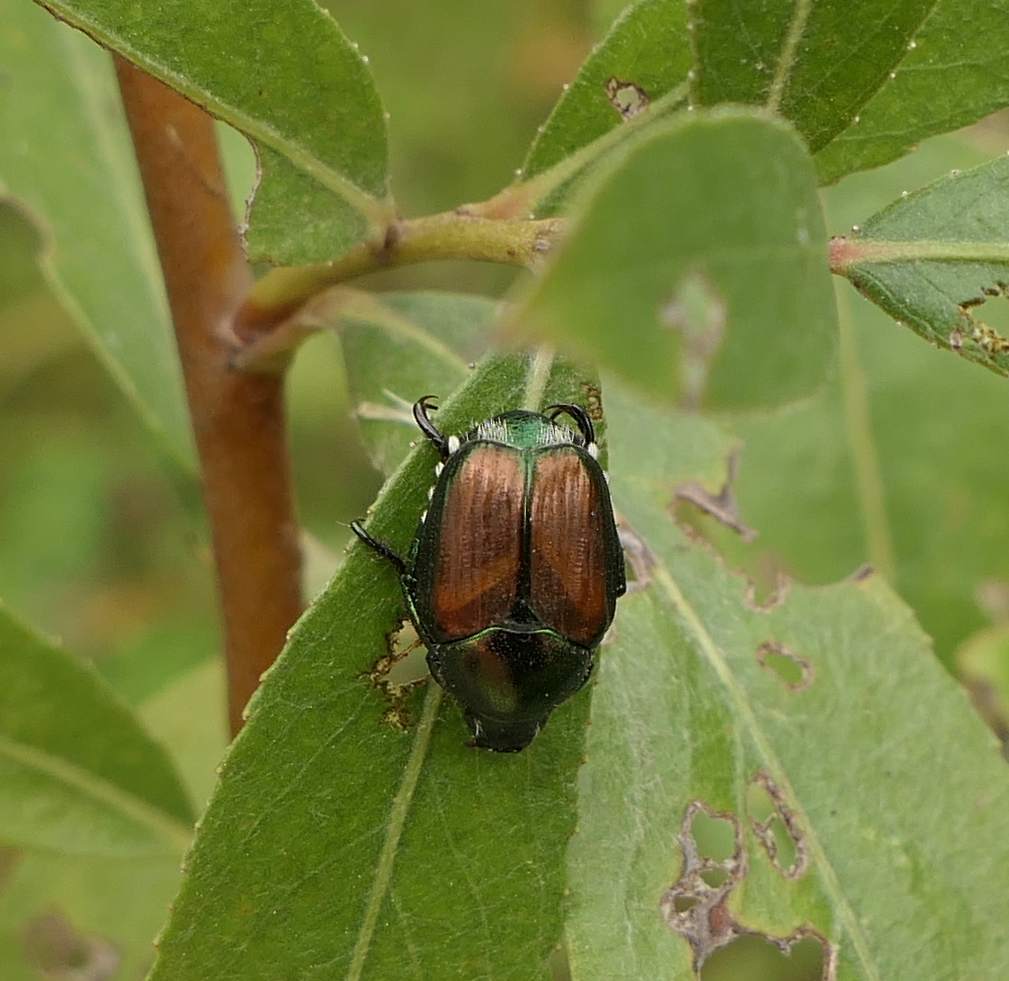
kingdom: Animalia
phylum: Arthropoda
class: Insecta
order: Coleoptera
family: Scarabaeidae
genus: Popillia
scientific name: Popillia japonica
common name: Japanese beetle
